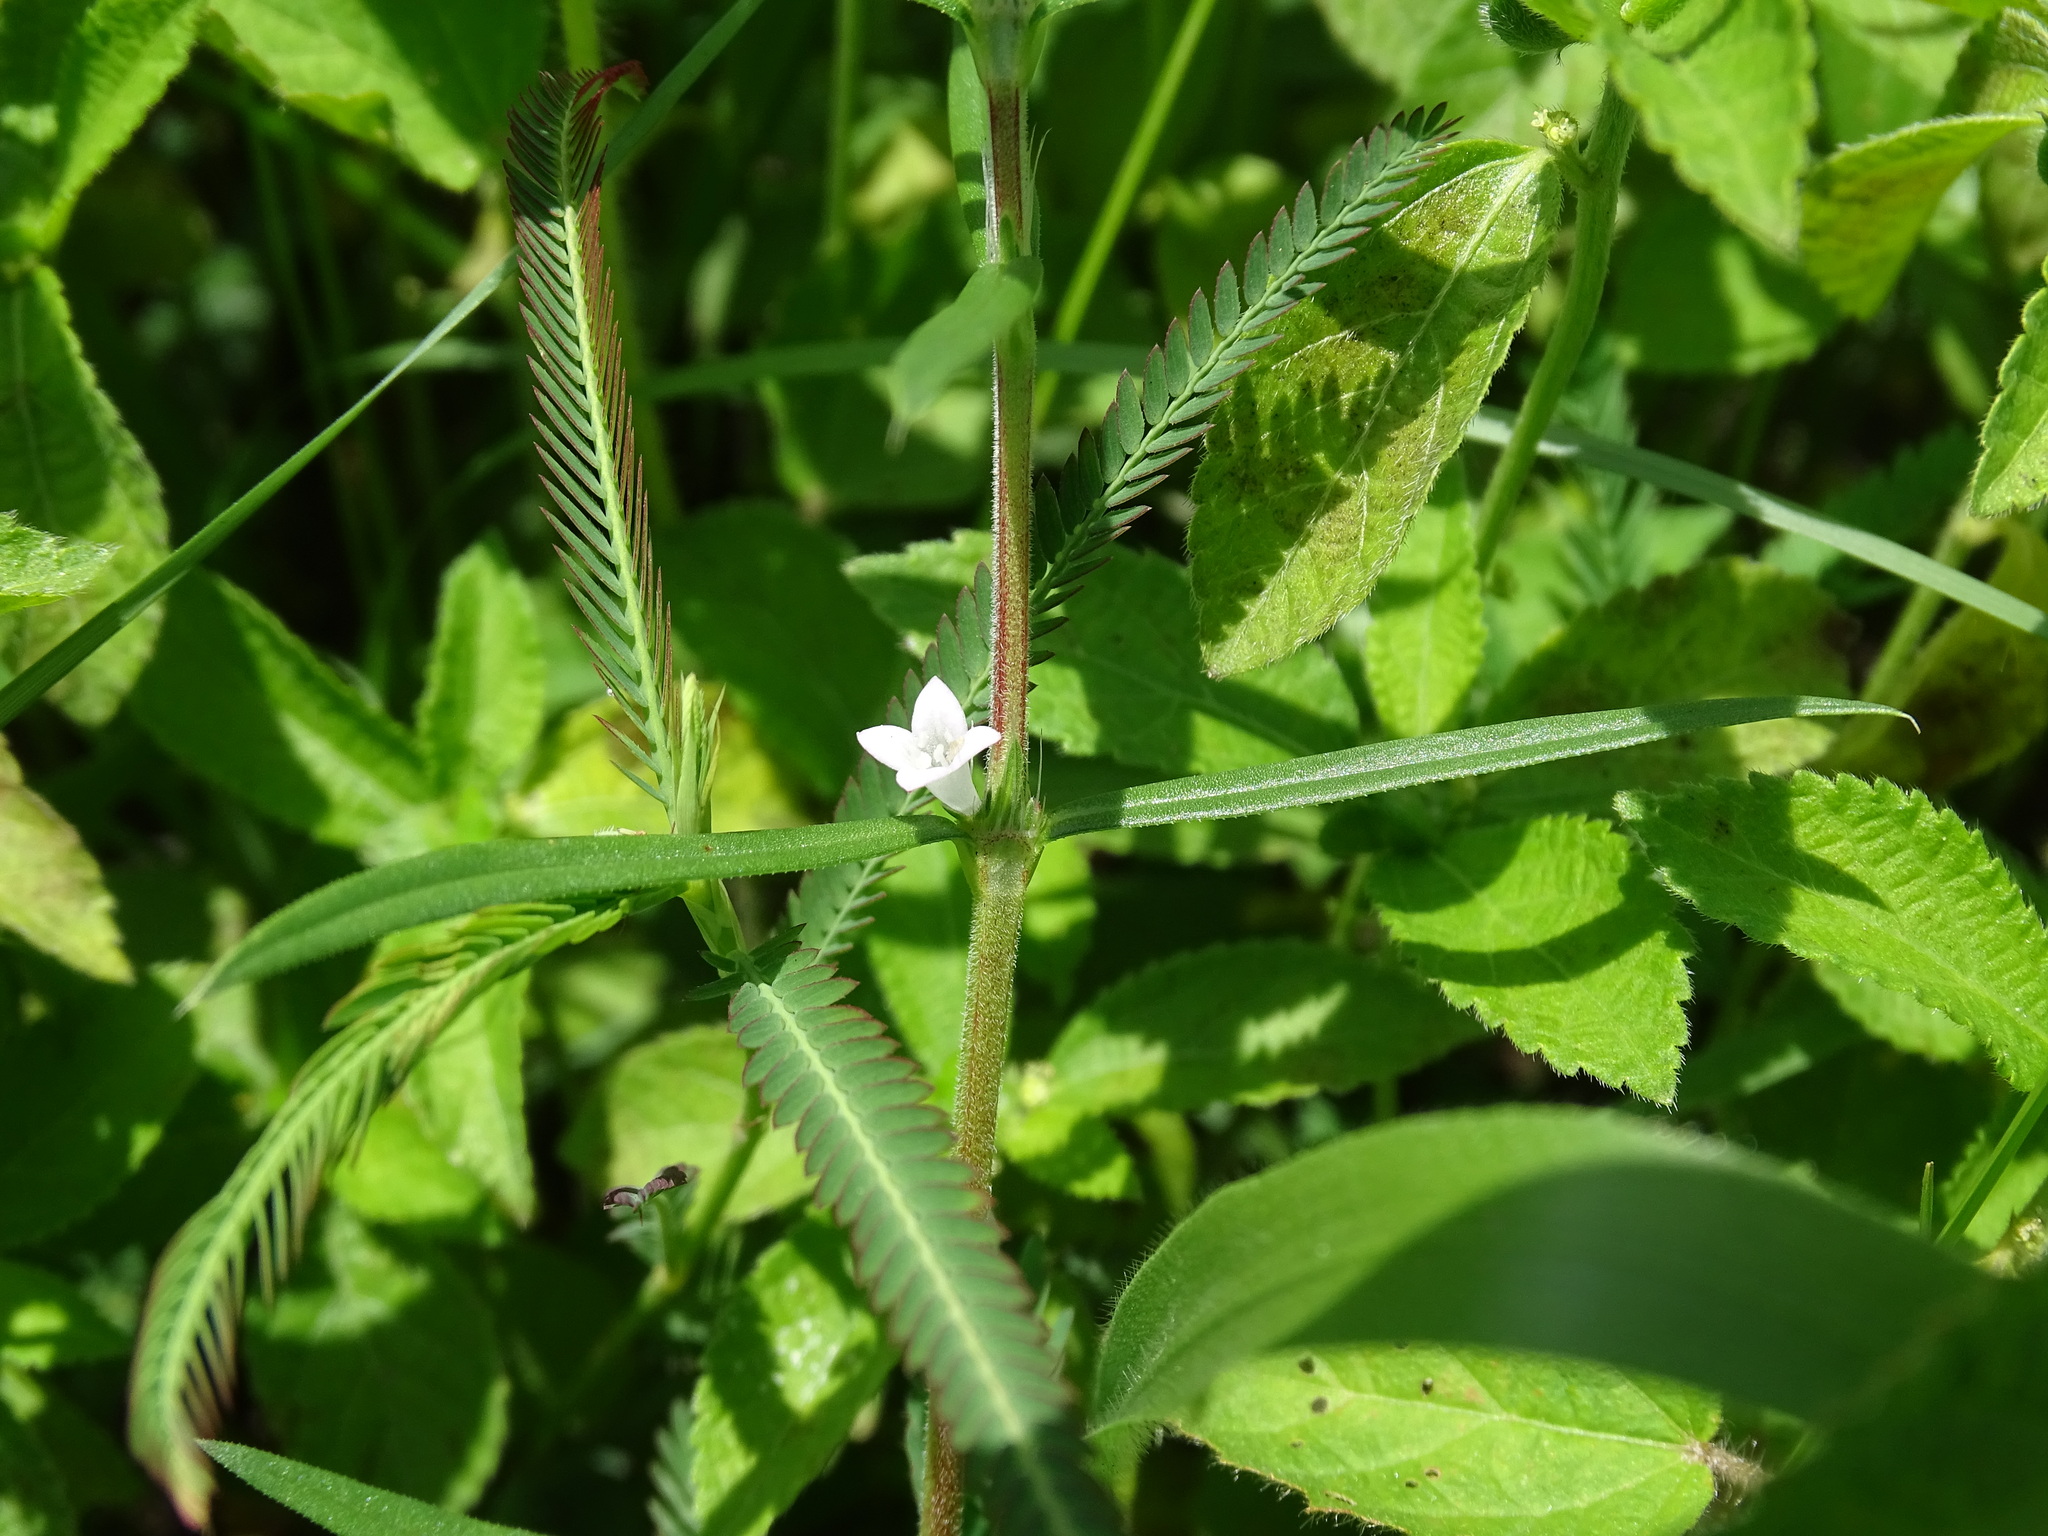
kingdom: Plantae
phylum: Tracheophyta
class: Magnoliopsida
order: Gentianales
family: Rubiaceae
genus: Hexasepalum
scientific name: Hexasepalum teres
